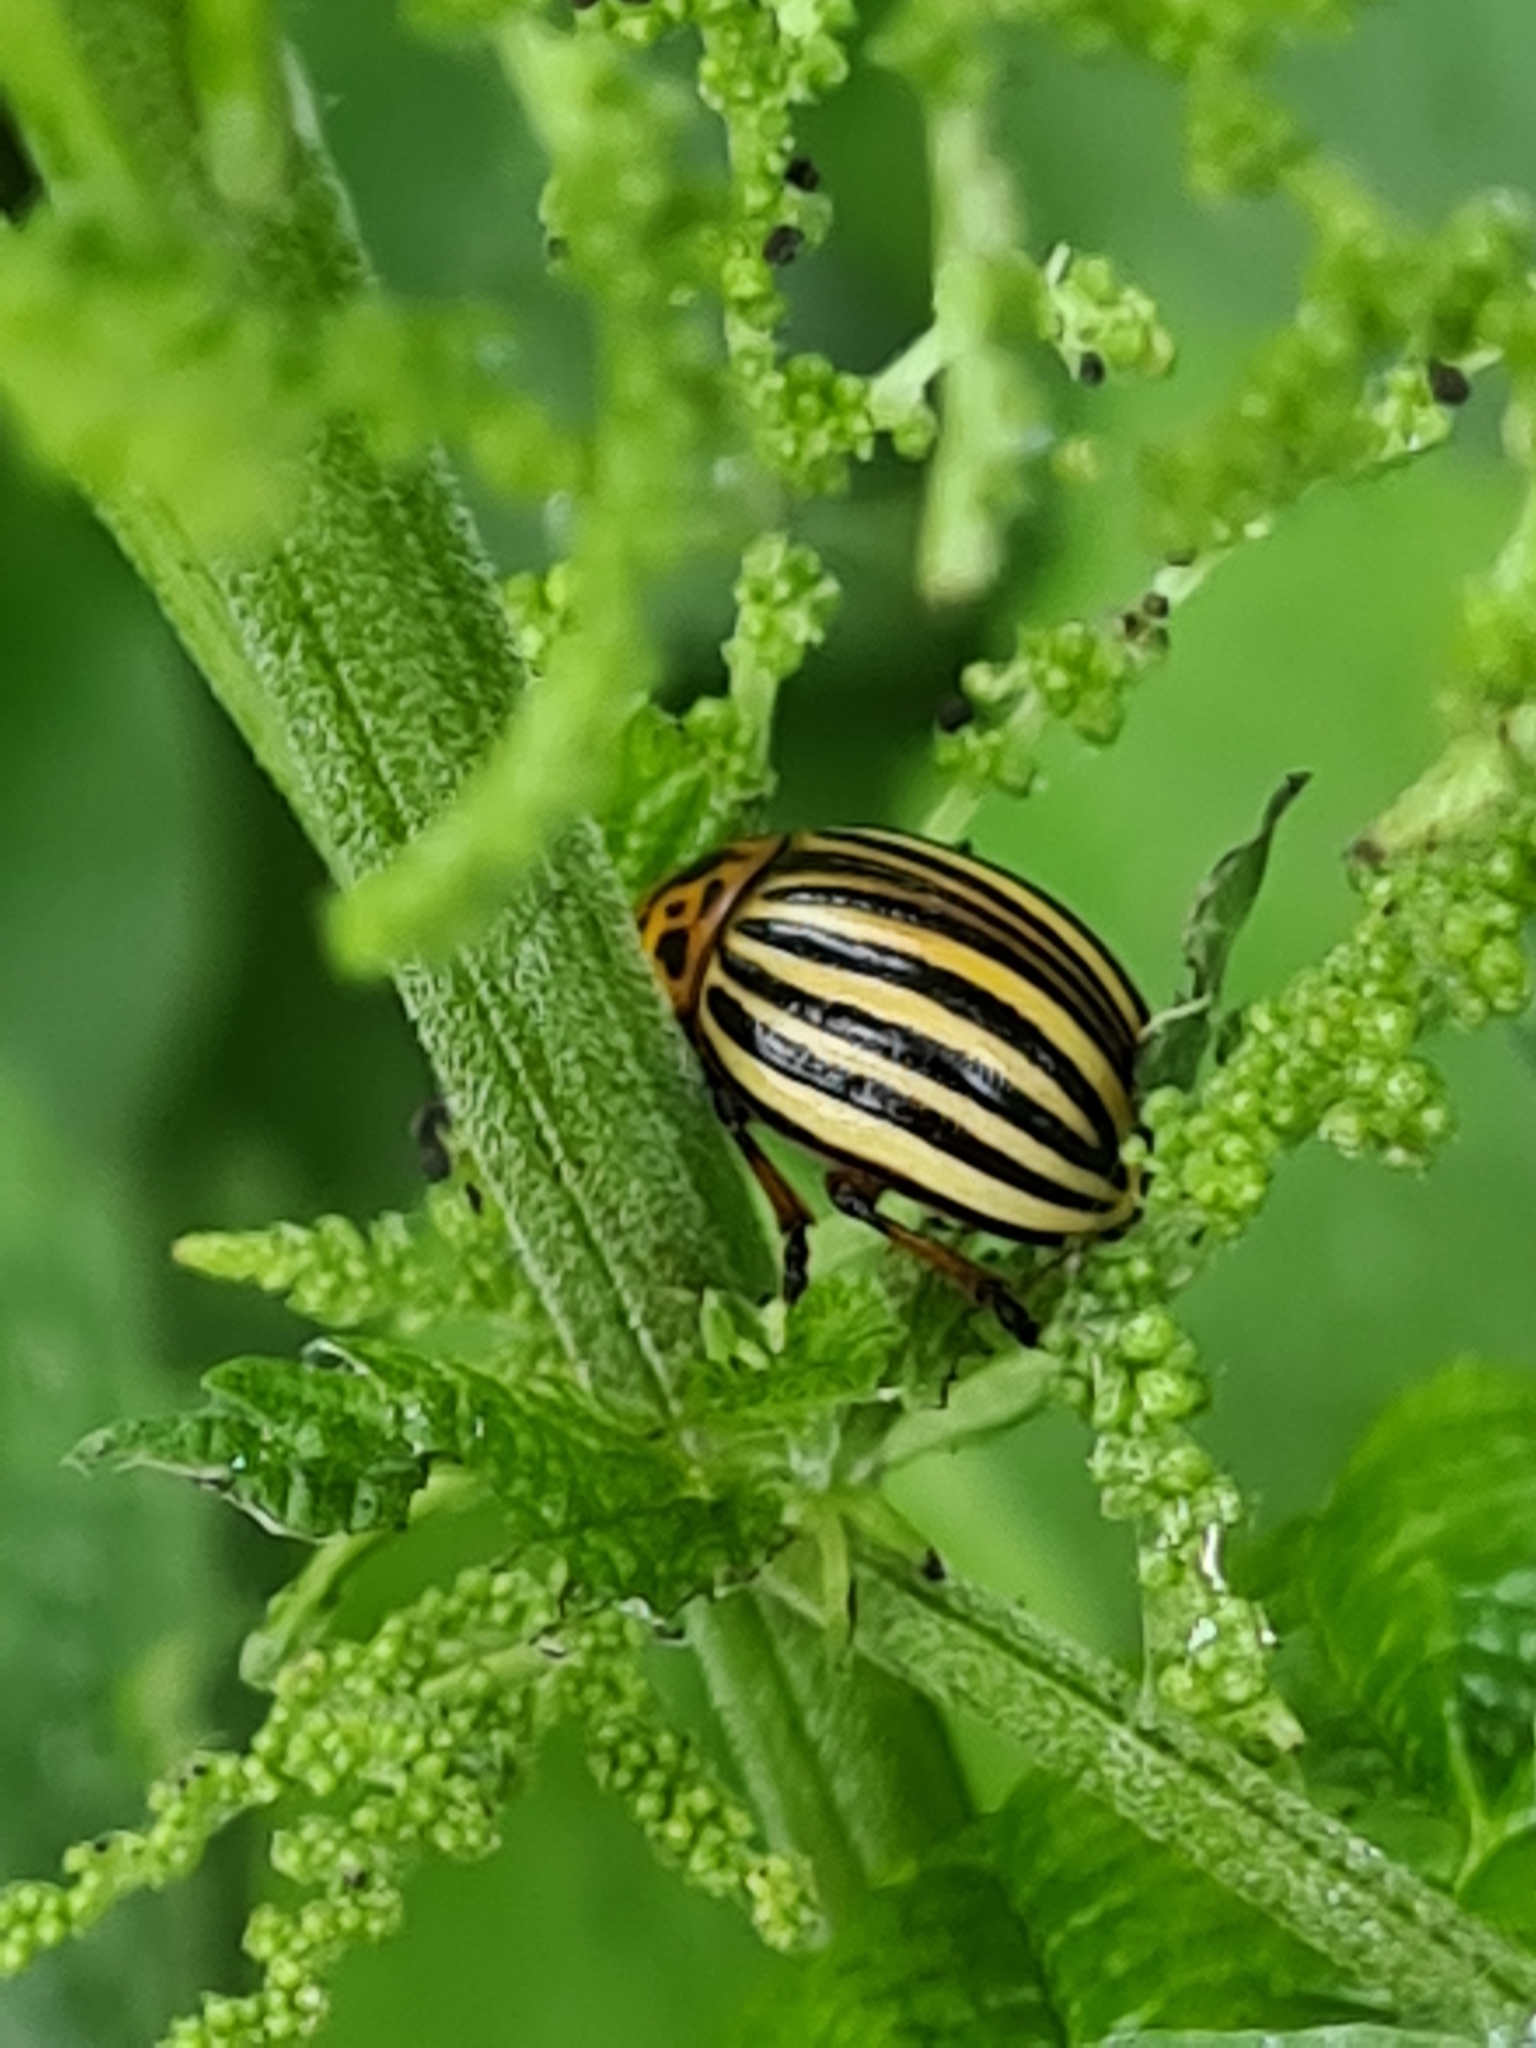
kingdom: Animalia
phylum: Arthropoda
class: Insecta
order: Coleoptera
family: Chrysomelidae
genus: Leptinotarsa
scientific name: Leptinotarsa decemlineata
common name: Colorado potato beetle
